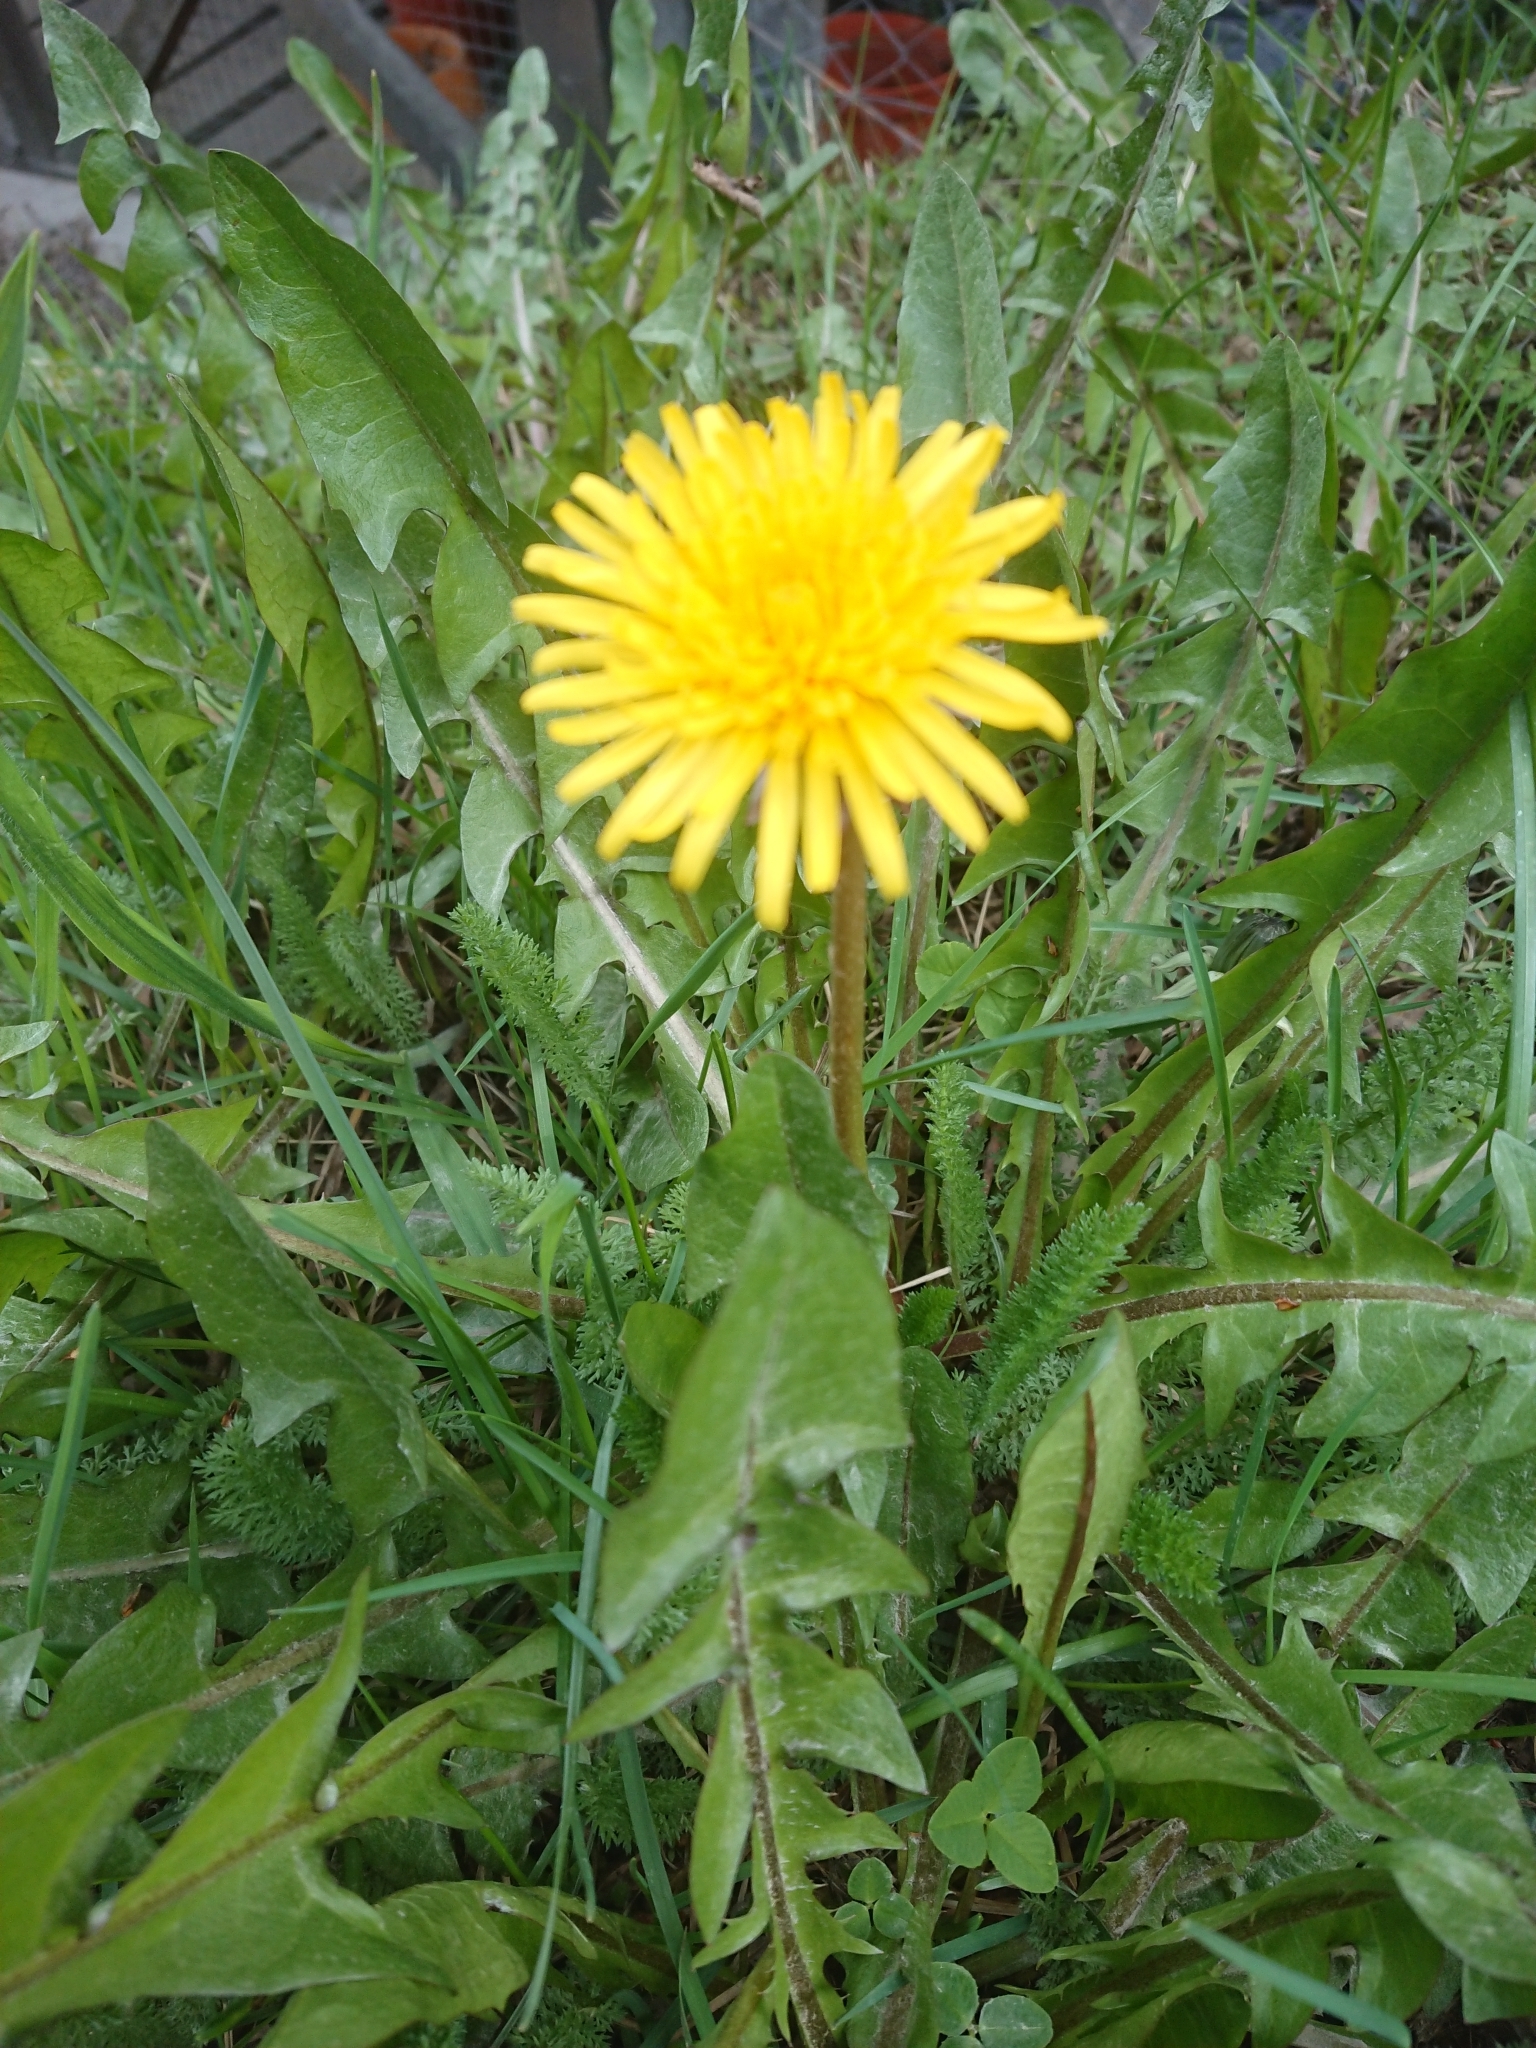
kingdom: Plantae
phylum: Tracheophyta
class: Magnoliopsida
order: Asterales
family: Asteraceae
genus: Taraxacum
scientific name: Taraxacum officinale
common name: Common dandelion
